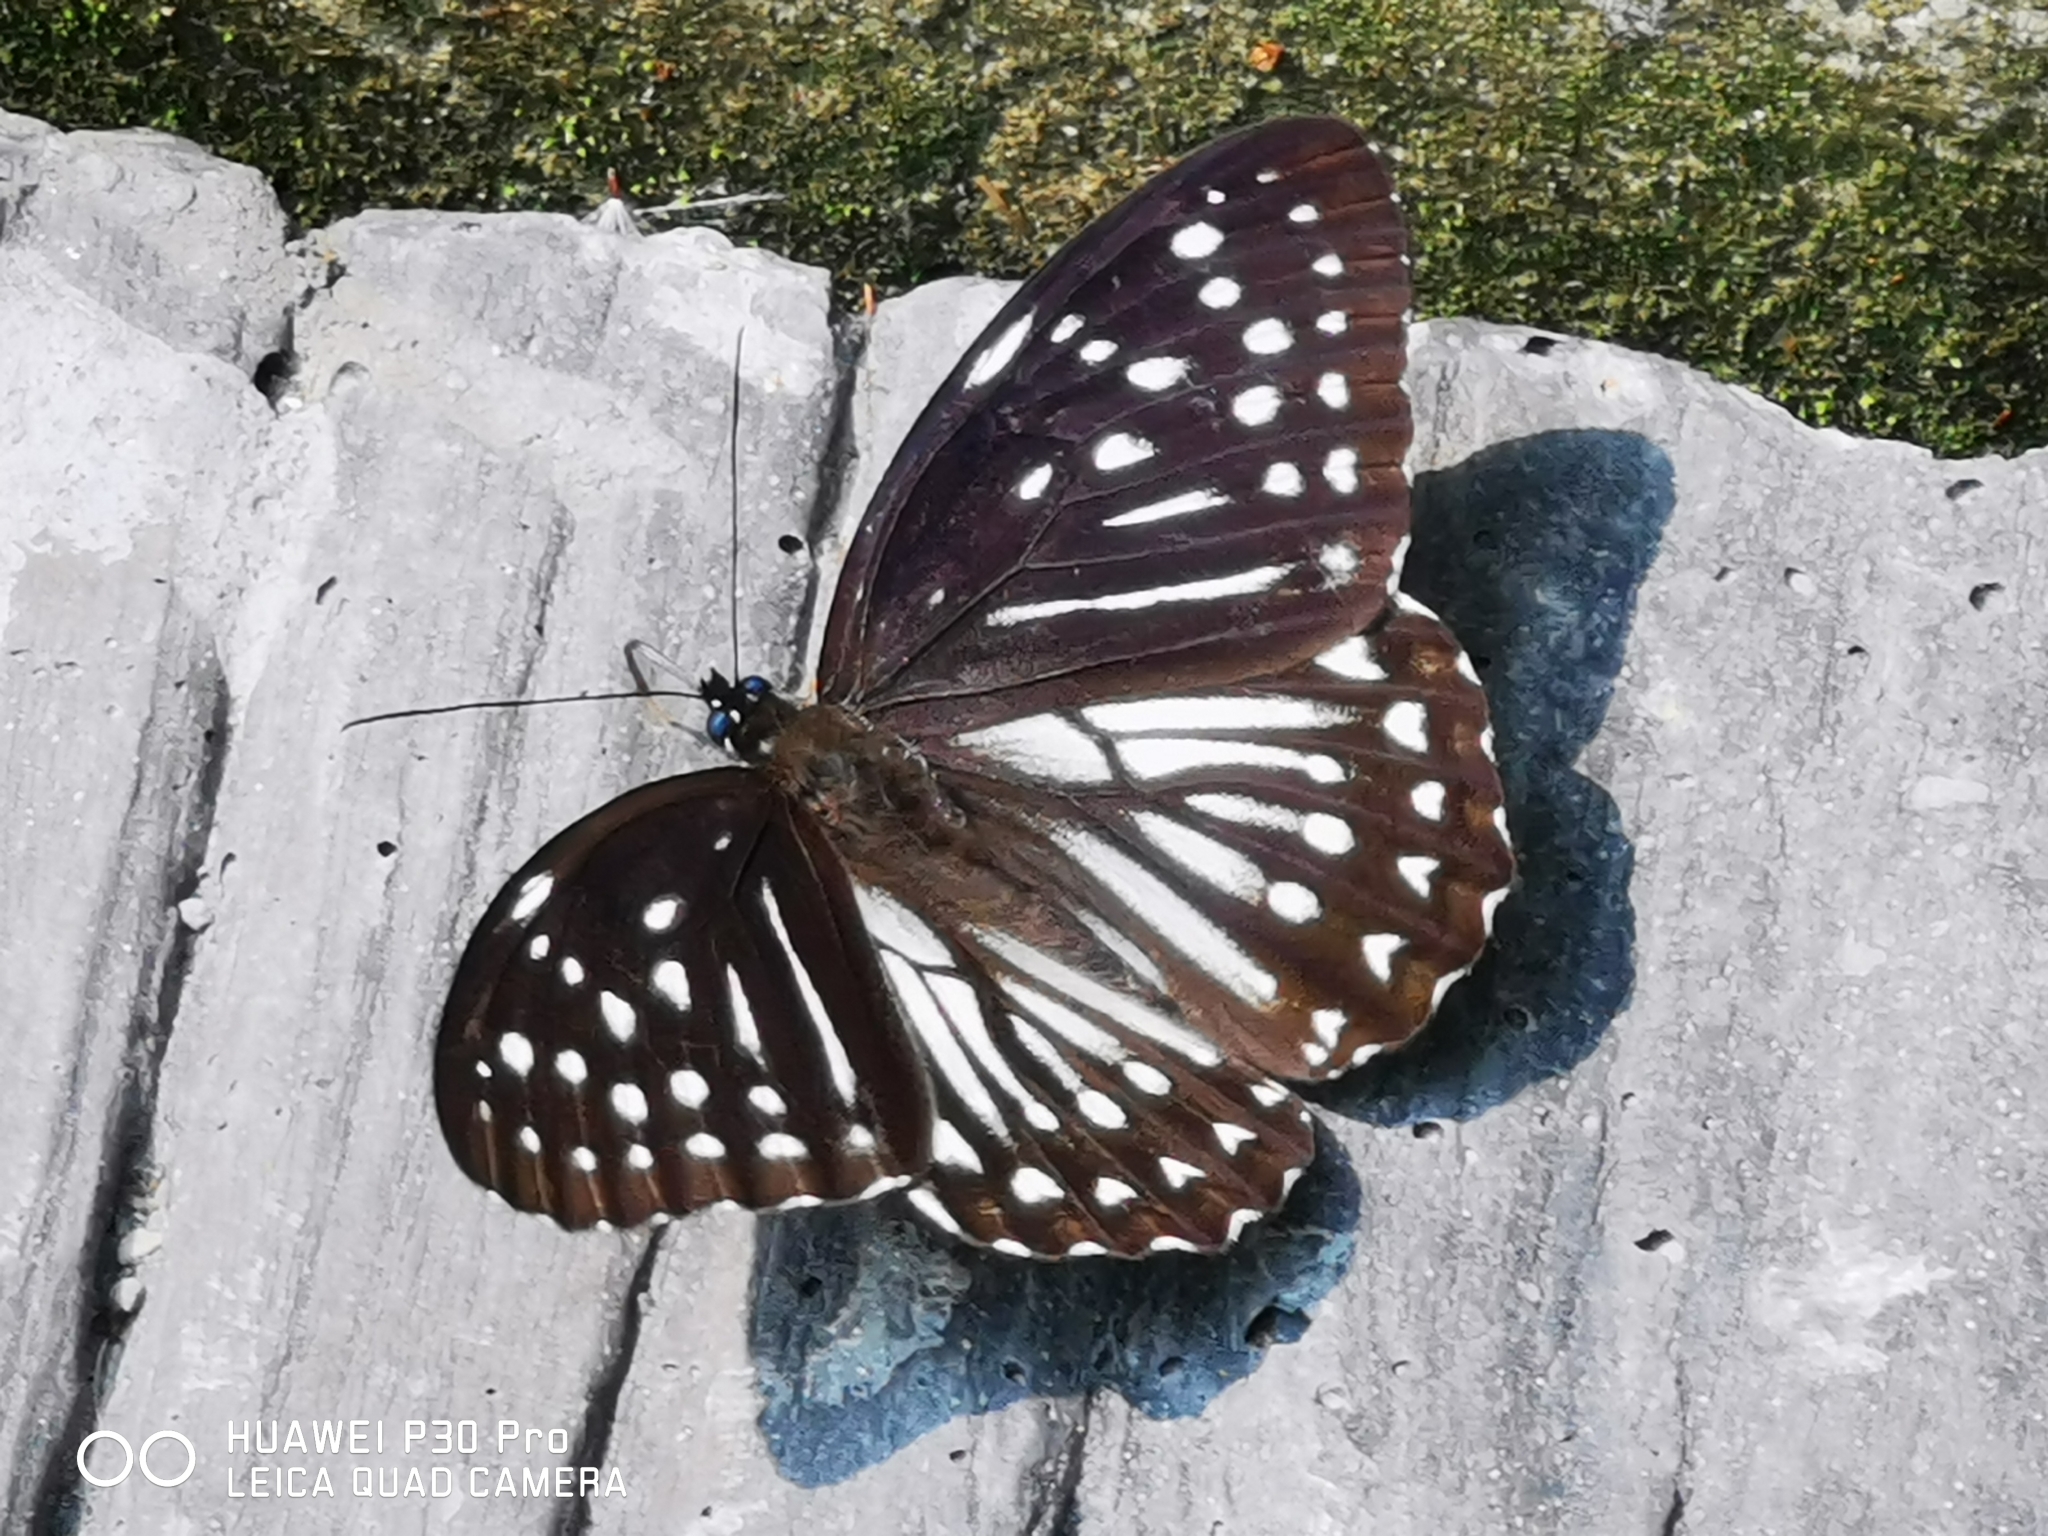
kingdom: Animalia
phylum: Arthropoda
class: Insecta
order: Lepidoptera
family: Nymphalidae
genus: Penthema
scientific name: Penthema formosanum
